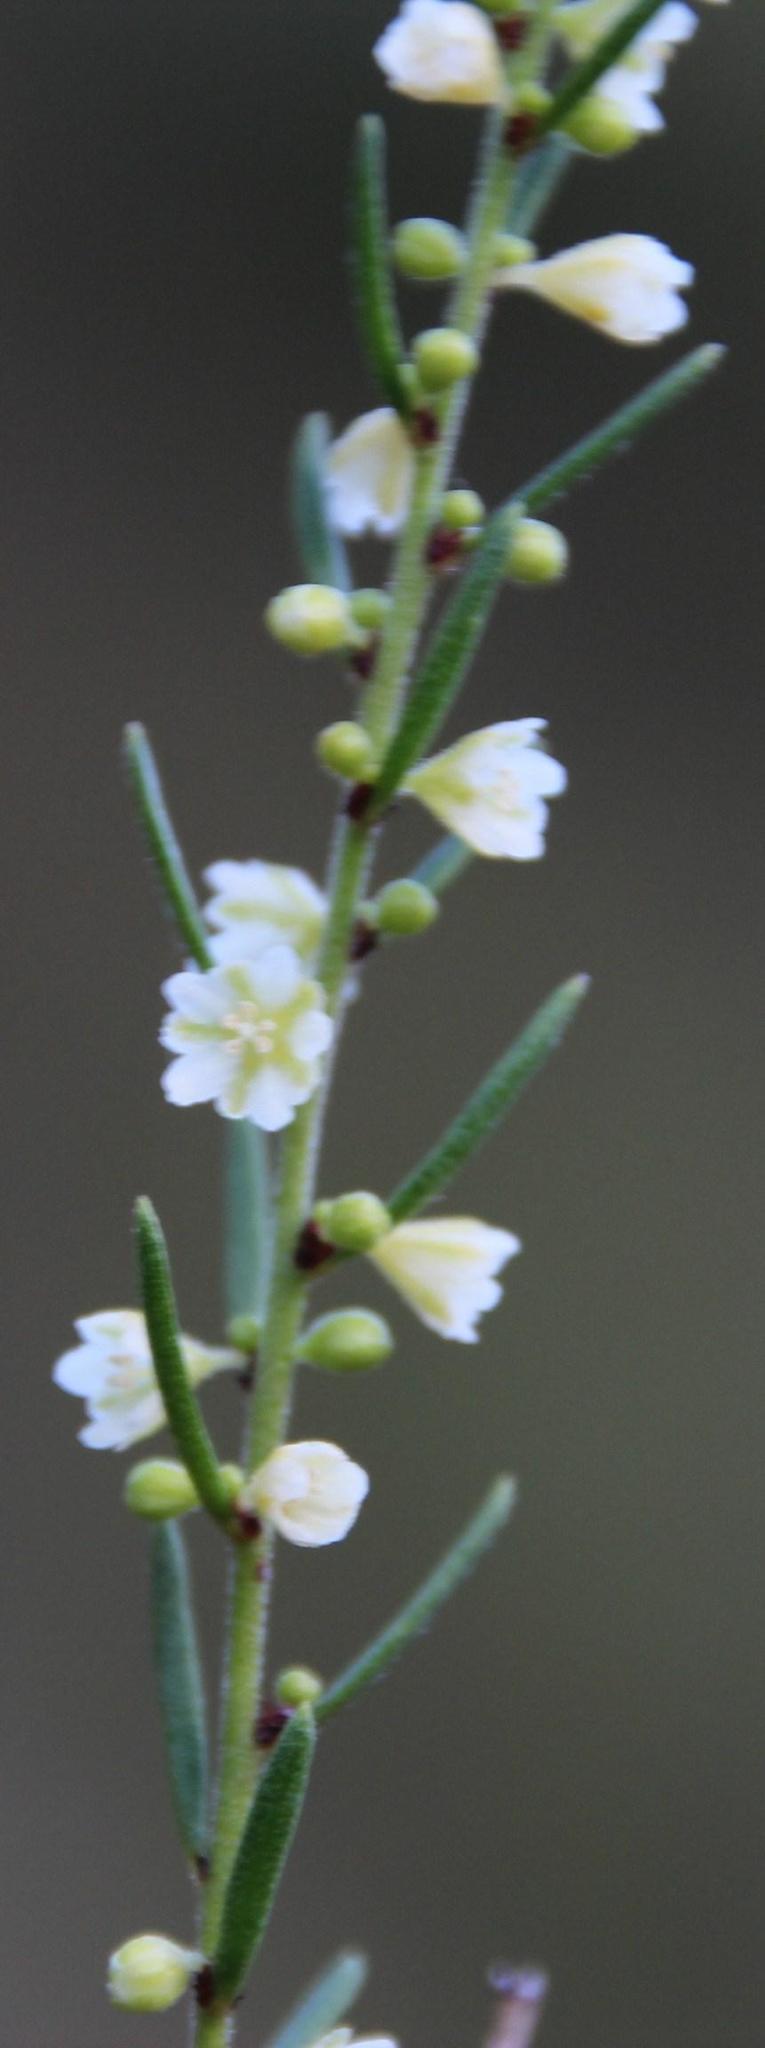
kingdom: Plantae
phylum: Tracheophyta
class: Magnoliopsida
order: Malpighiales
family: Peraceae
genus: Clutia
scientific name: Clutia ericoides
